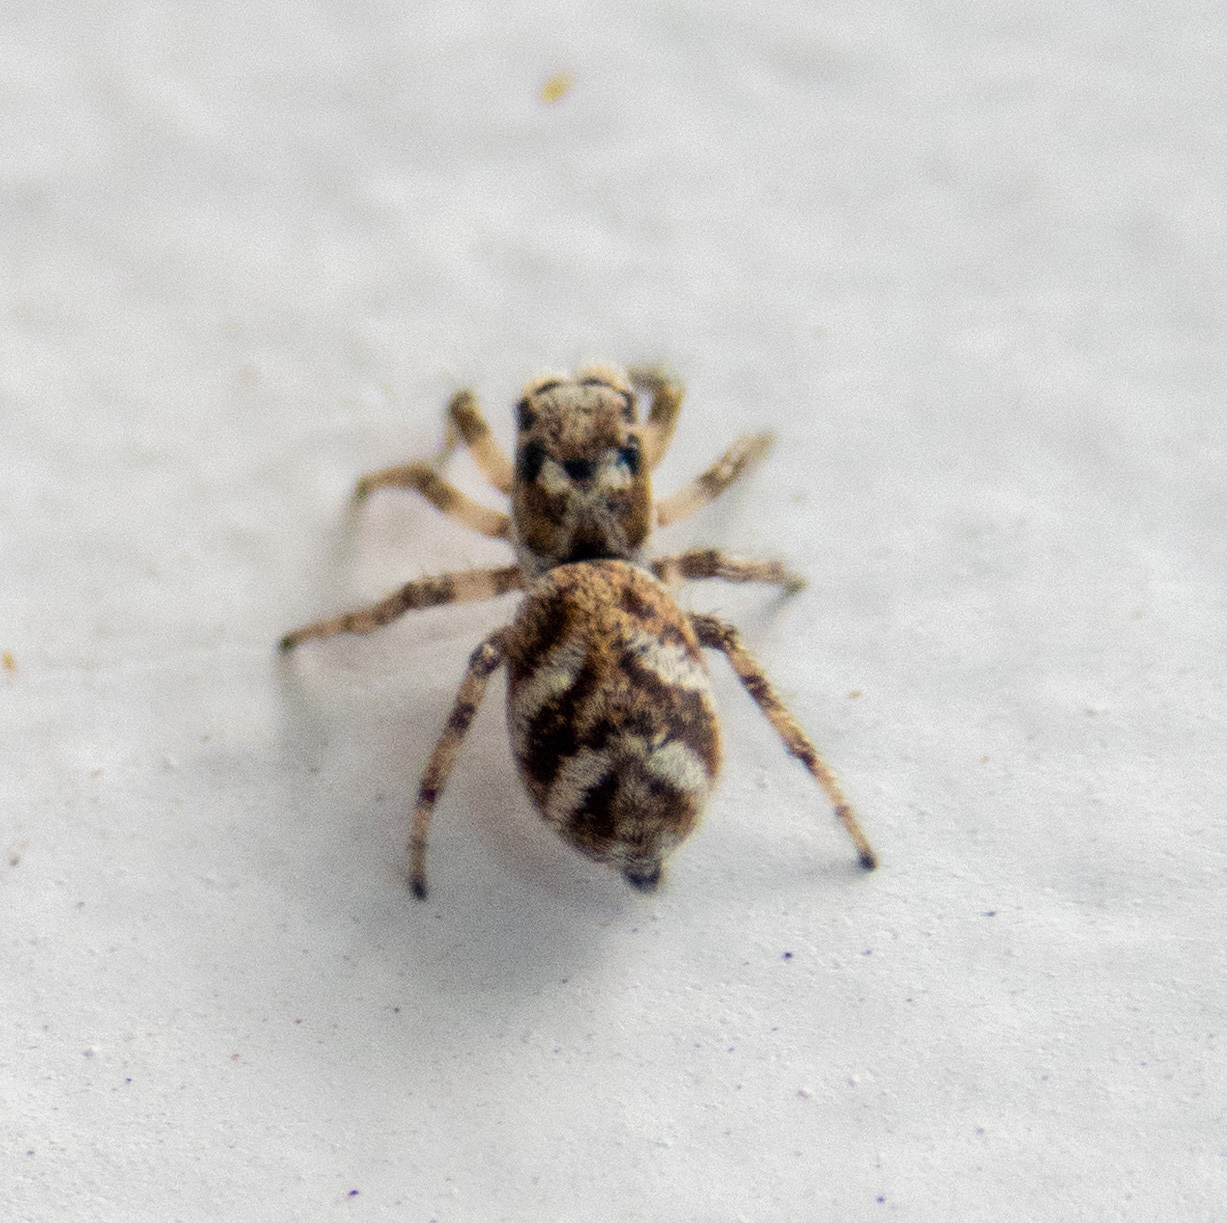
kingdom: Animalia
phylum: Arthropoda
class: Arachnida
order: Araneae
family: Salticidae
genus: Salticus
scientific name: Salticus scenicus
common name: Zebra jumper
